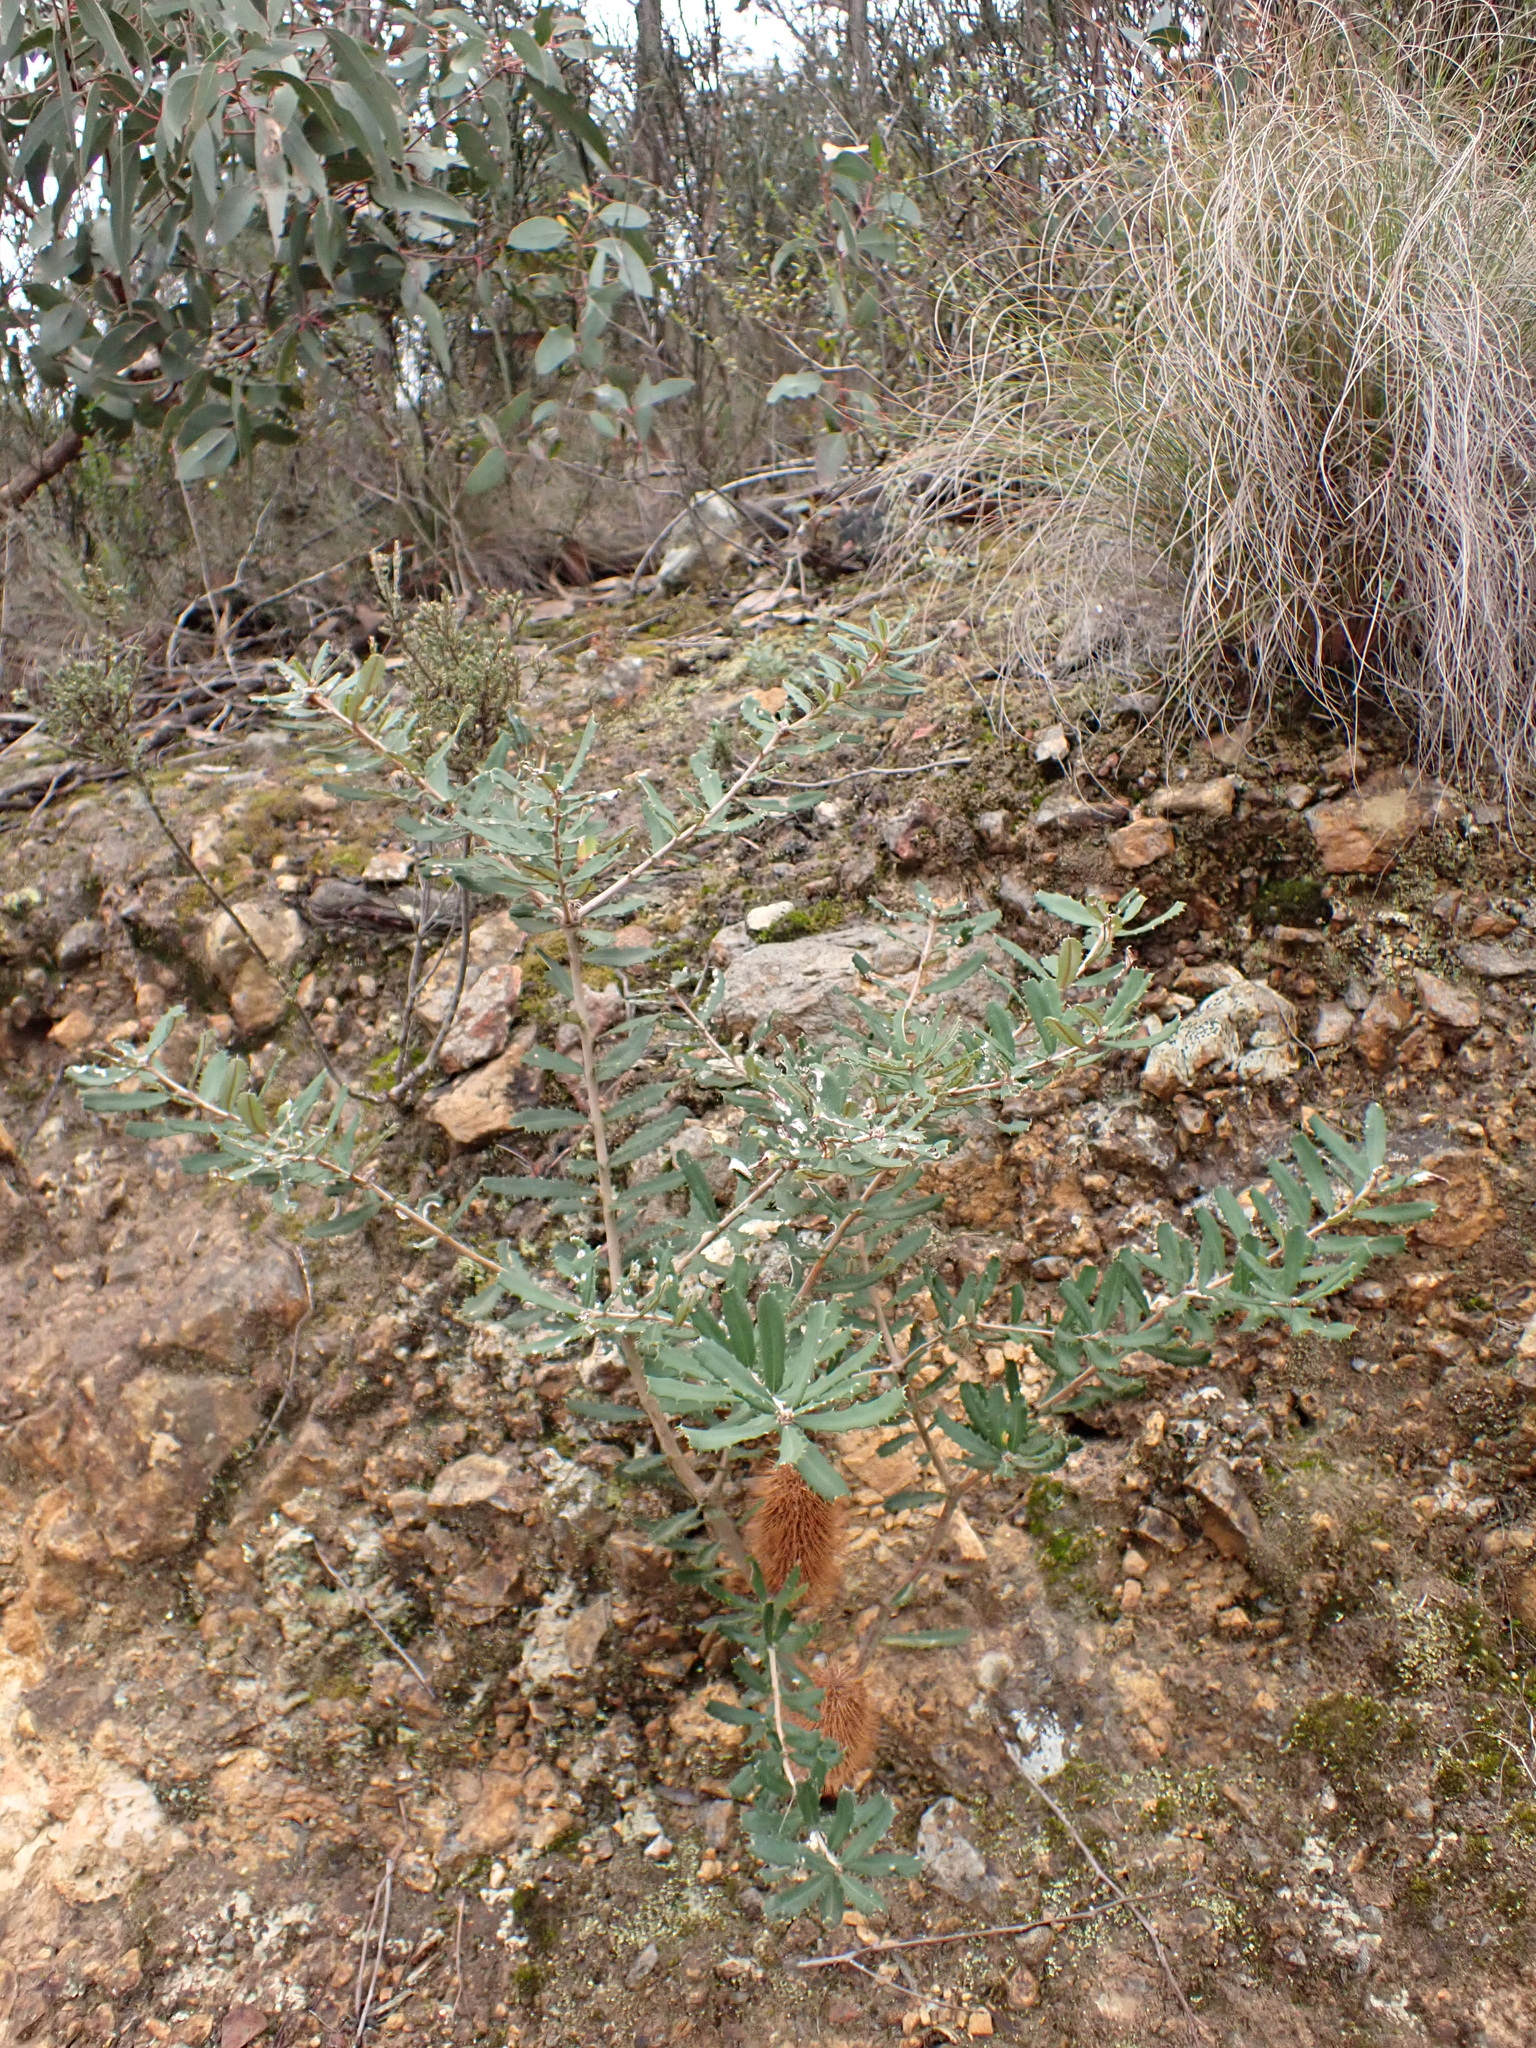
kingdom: Plantae
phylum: Tracheophyta
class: Magnoliopsida
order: Proteales
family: Proteaceae
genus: Banksia
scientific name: Banksia marginata
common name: Silver banksia
